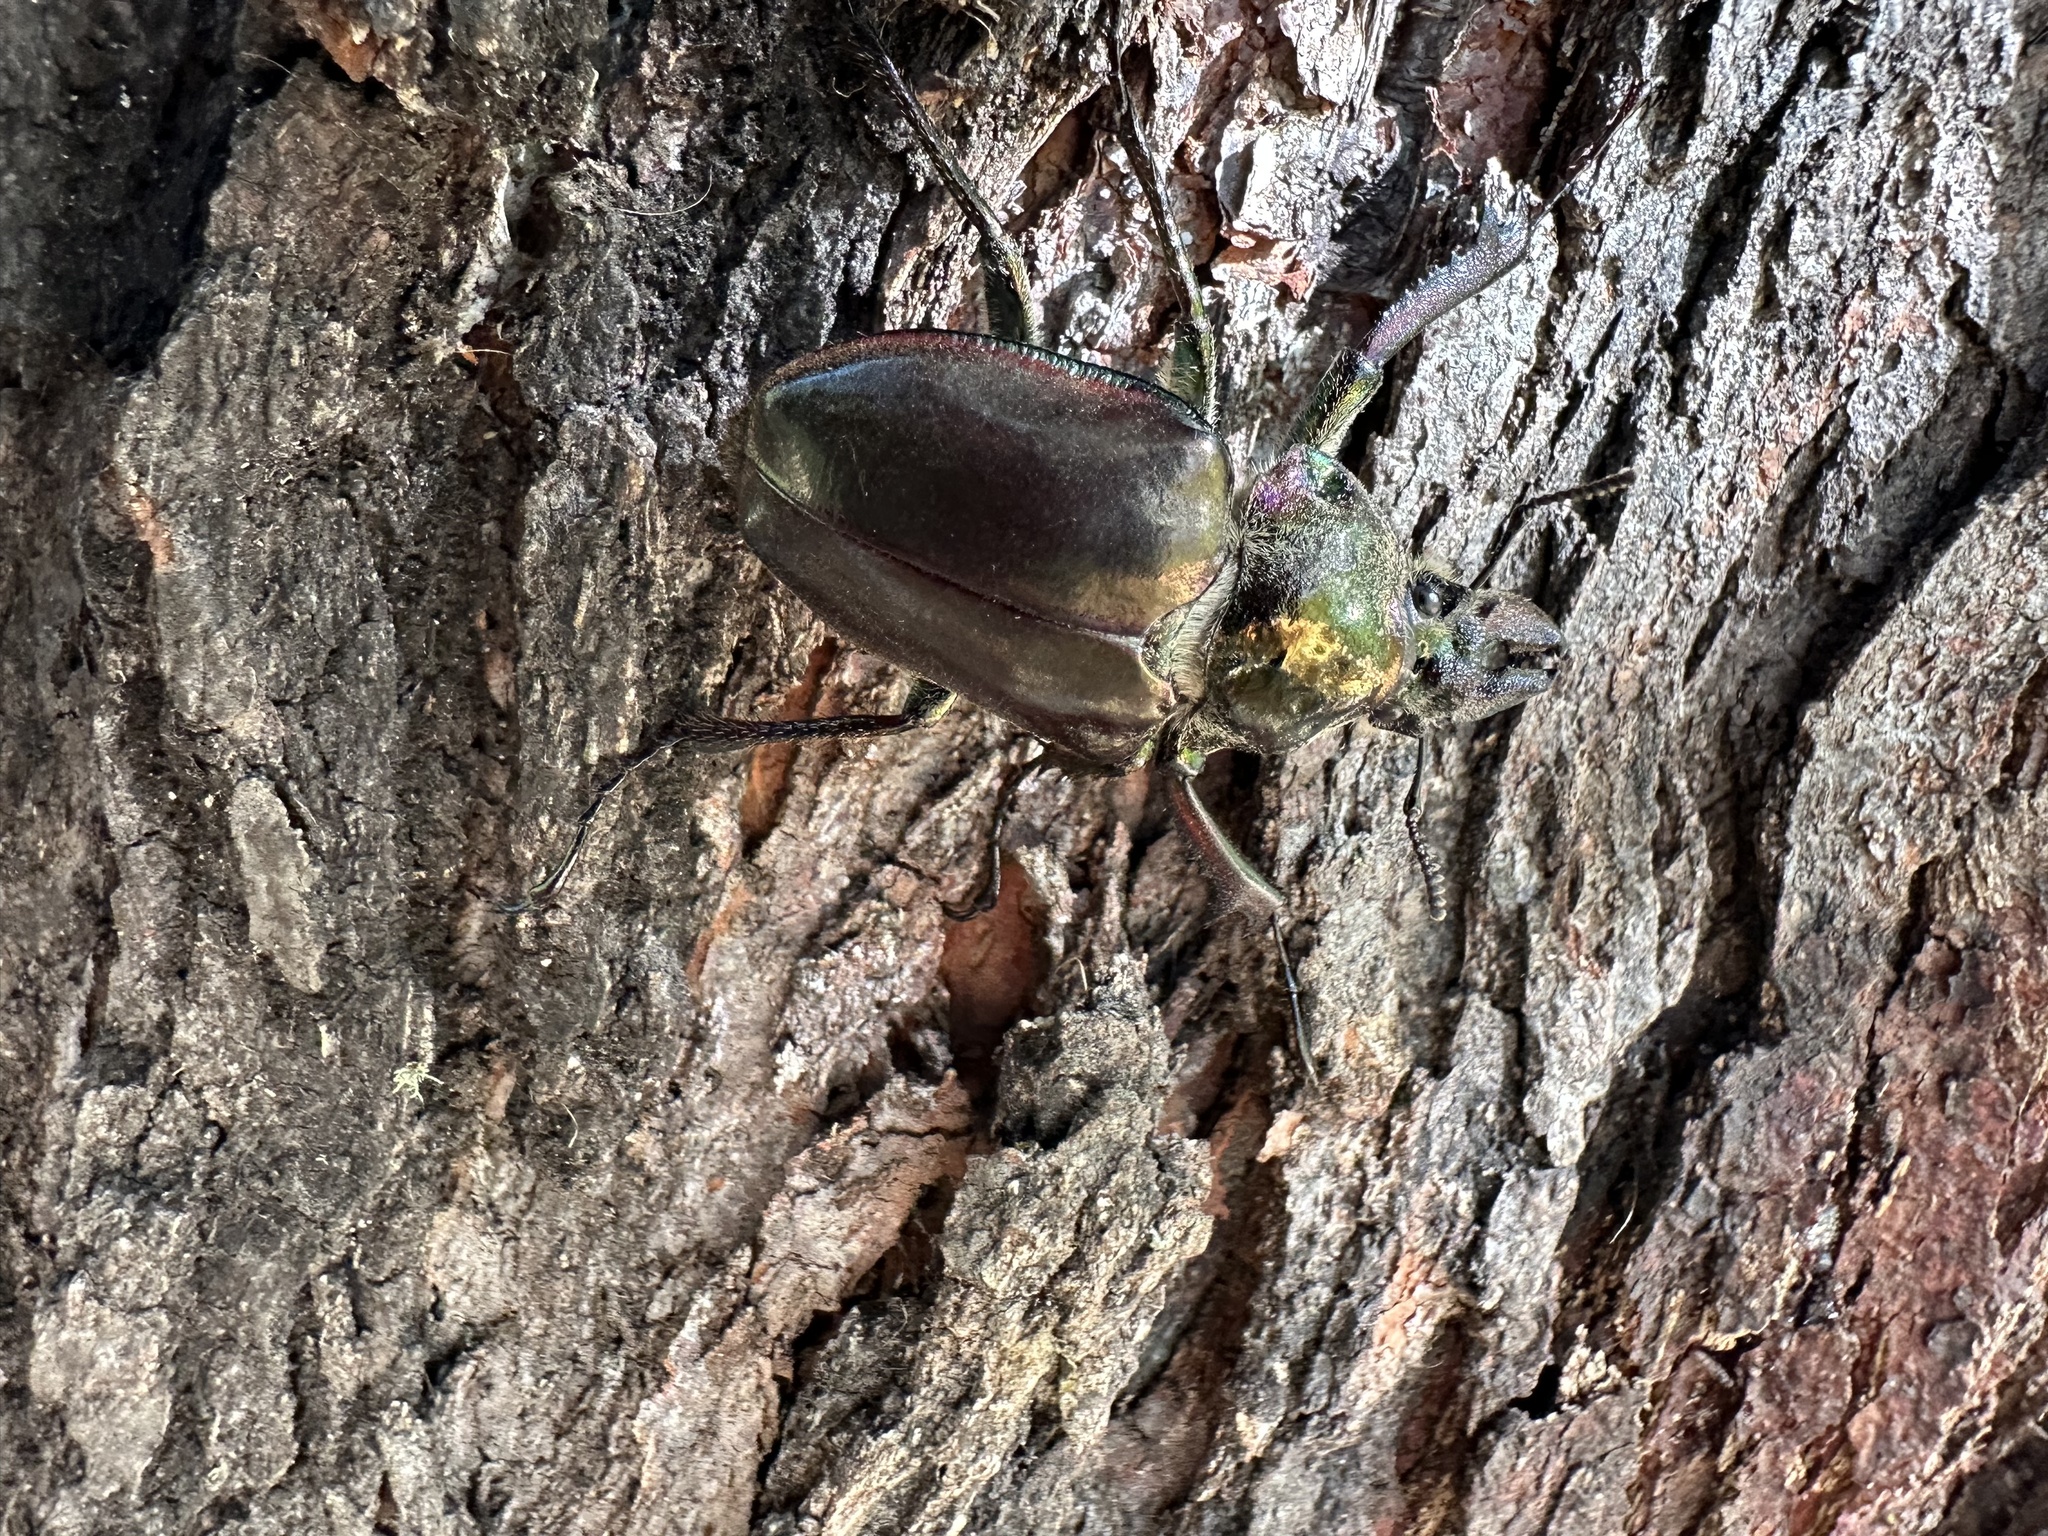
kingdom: Animalia
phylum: Arthropoda
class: Insecta
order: Coleoptera
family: Lucanidae
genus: Chiasognathus
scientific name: Chiasognathus grantii
